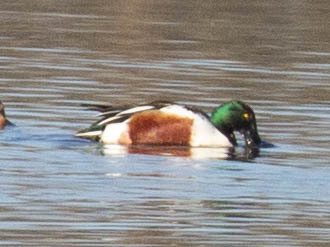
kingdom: Animalia
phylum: Chordata
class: Aves
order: Anseriformes
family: Anatidae
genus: Spatula
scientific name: Spatula clypeata
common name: Northern shoveler
